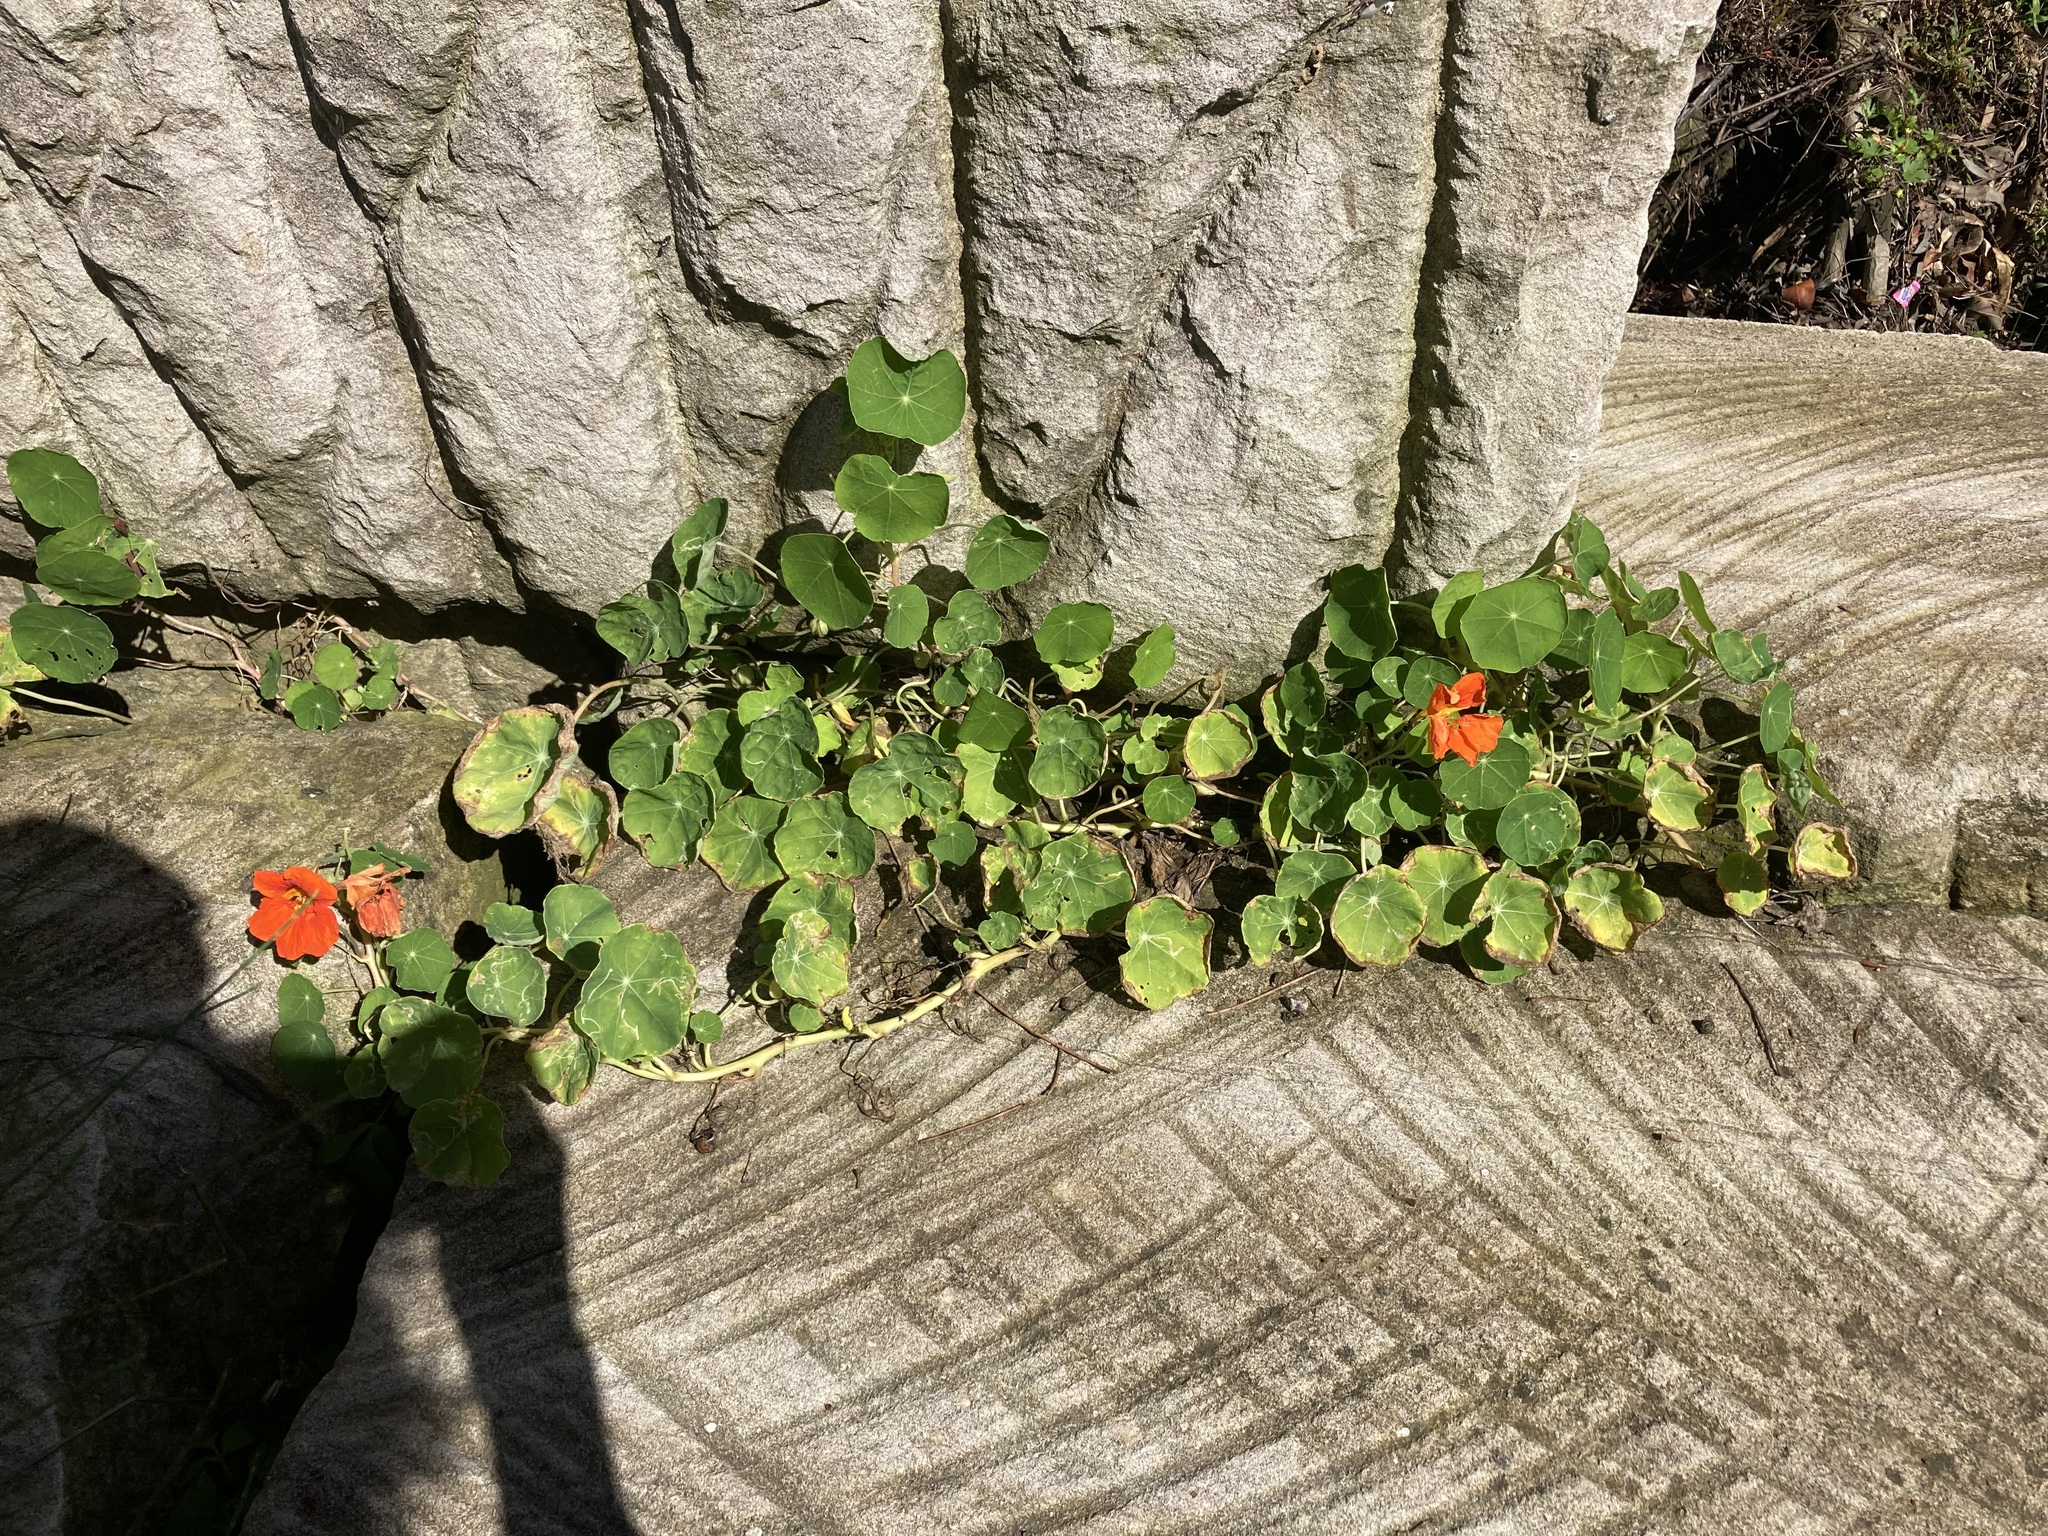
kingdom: Plantae
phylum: Tracheophyta
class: Magnoliopsida
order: Brassicales
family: Tropaeolaceae
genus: Tropaeolum
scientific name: Tropaeolum majus
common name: Nasturtium
